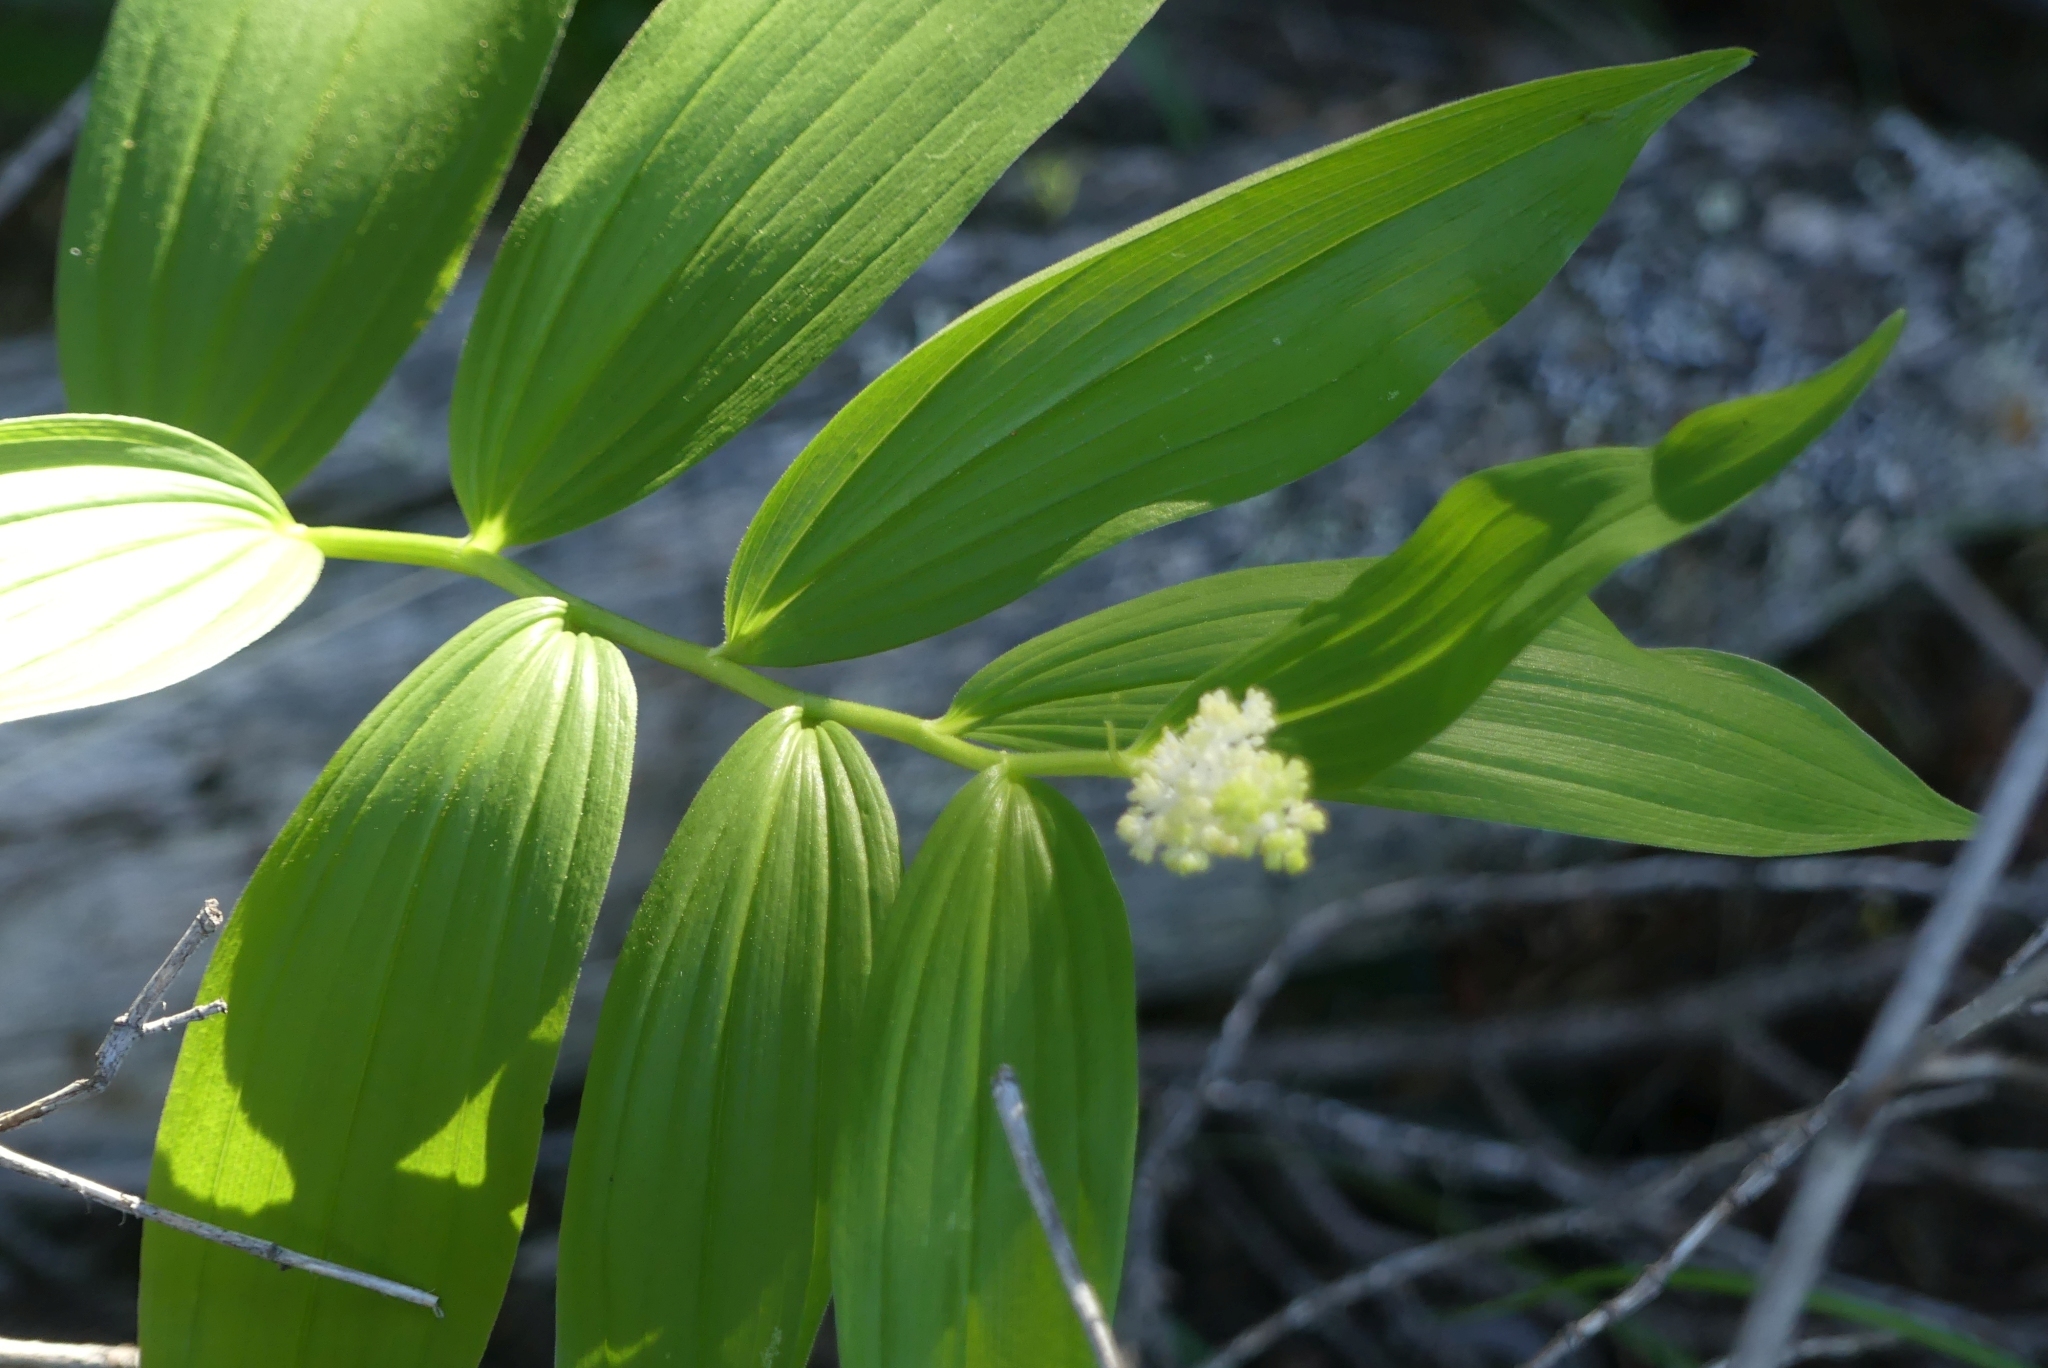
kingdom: Plantae
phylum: Tracheophyta
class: Liliopsida
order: Asparagales
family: Asparagaceae
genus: Maianthemum
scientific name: Maianthemum racemosum
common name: False spikenard
